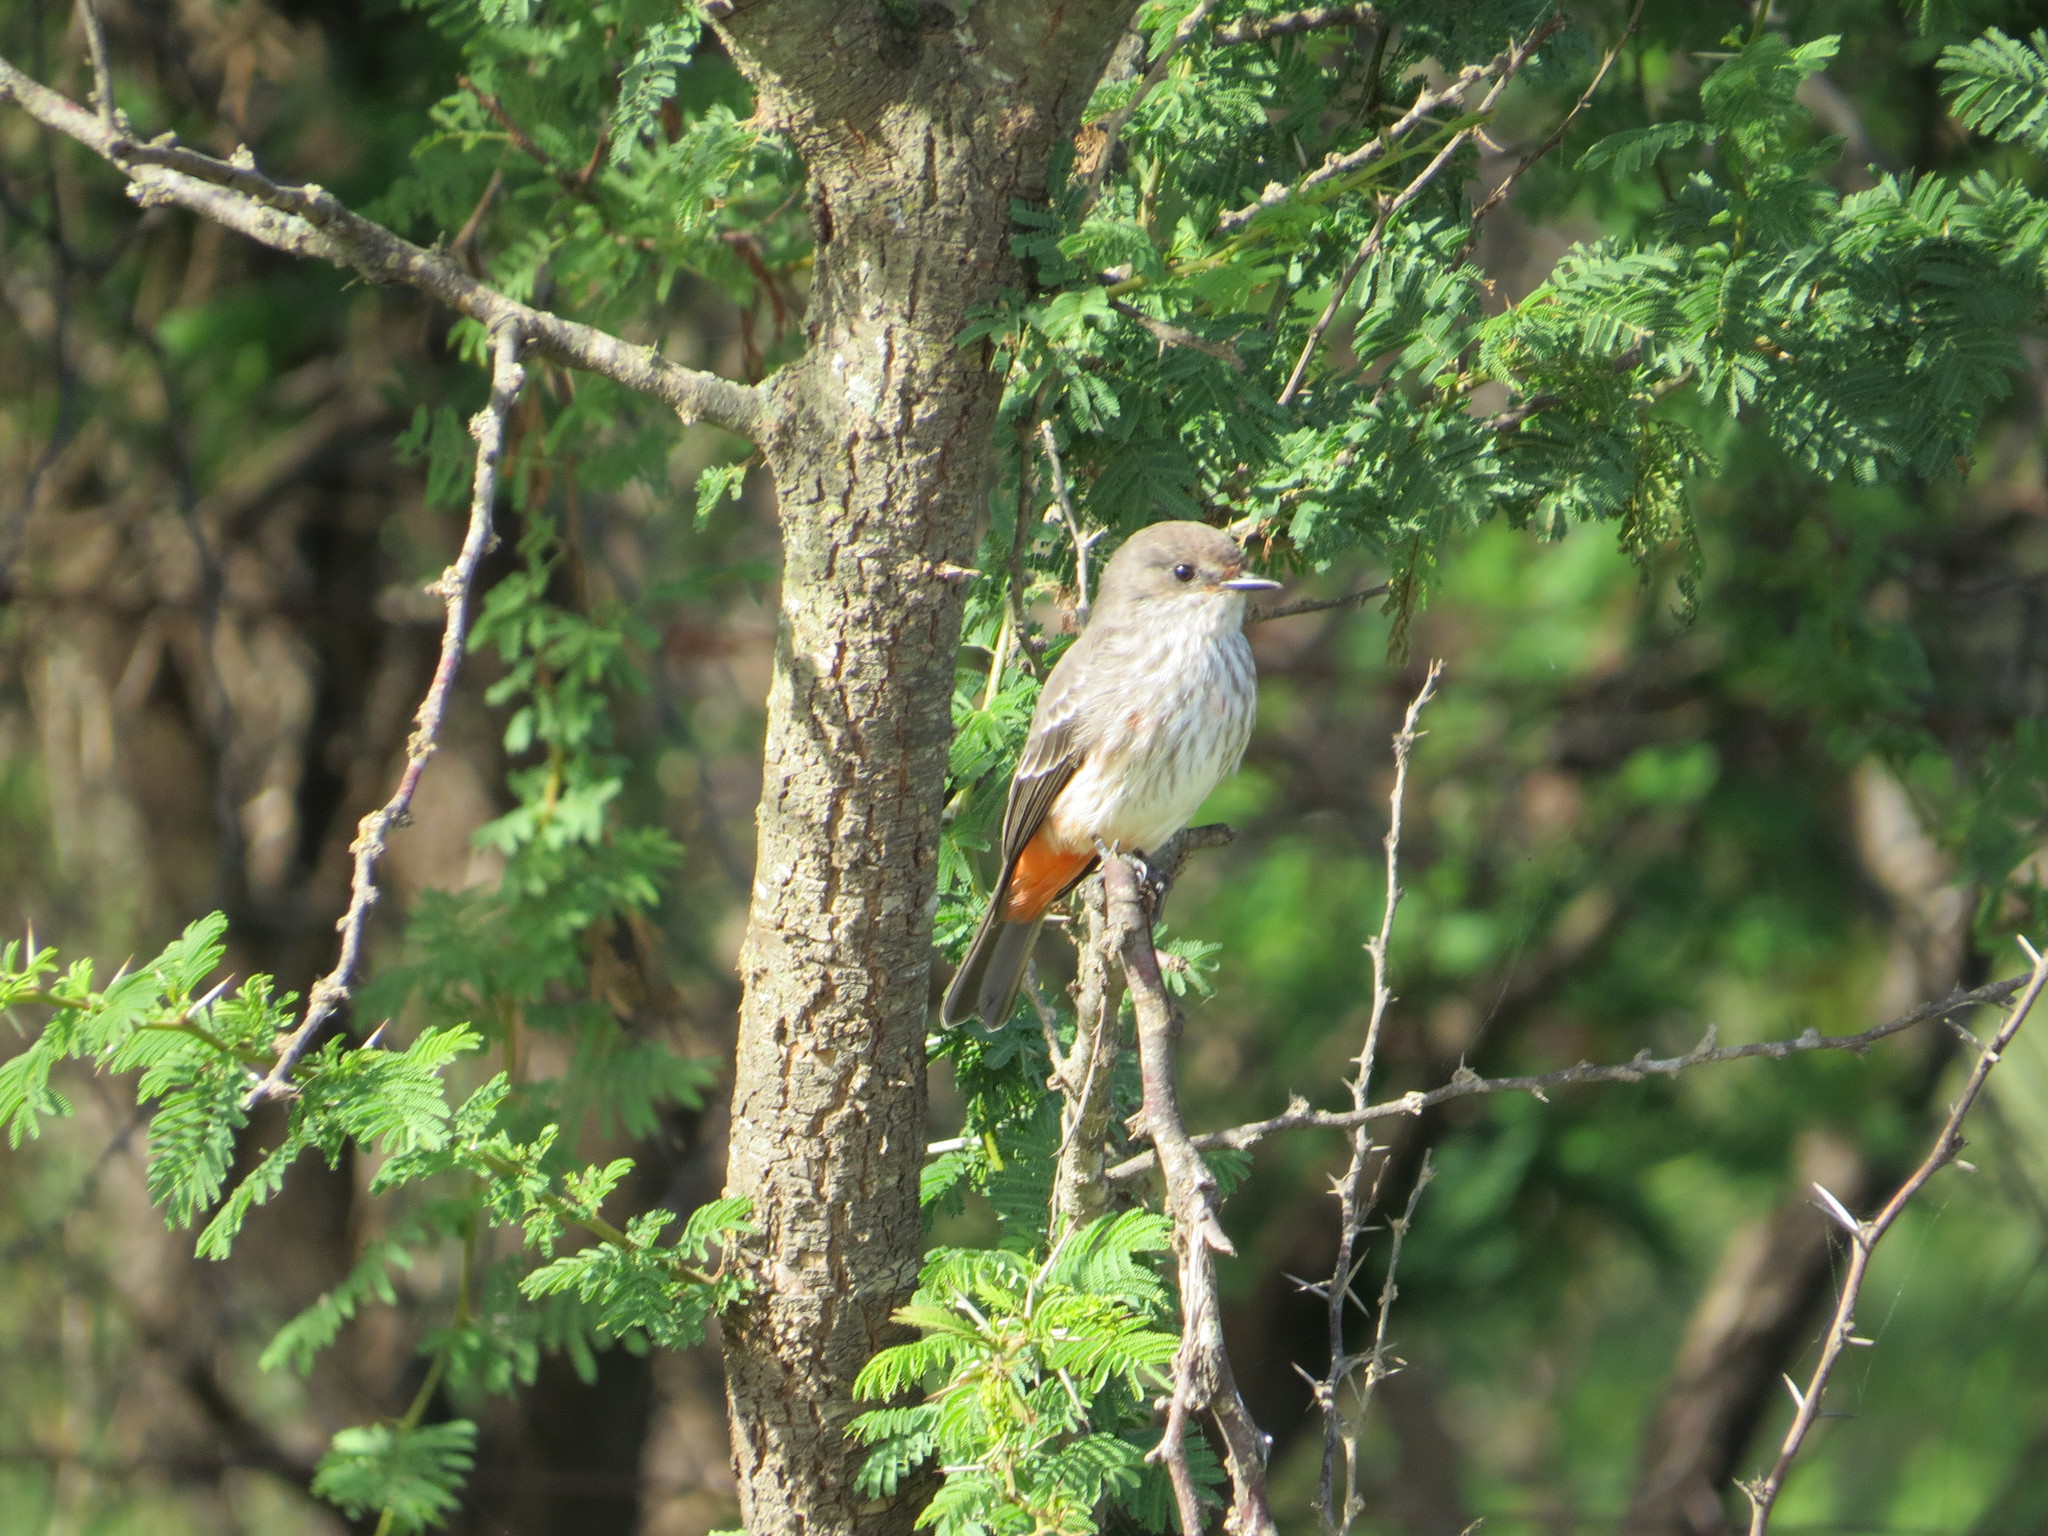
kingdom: Animalia
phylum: Chordata
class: Aves
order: Passeriformes
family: Tyrannidae
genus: Pyrocephalus
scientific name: Pyrocephalus rubinus
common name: Vermilion flycatcher
